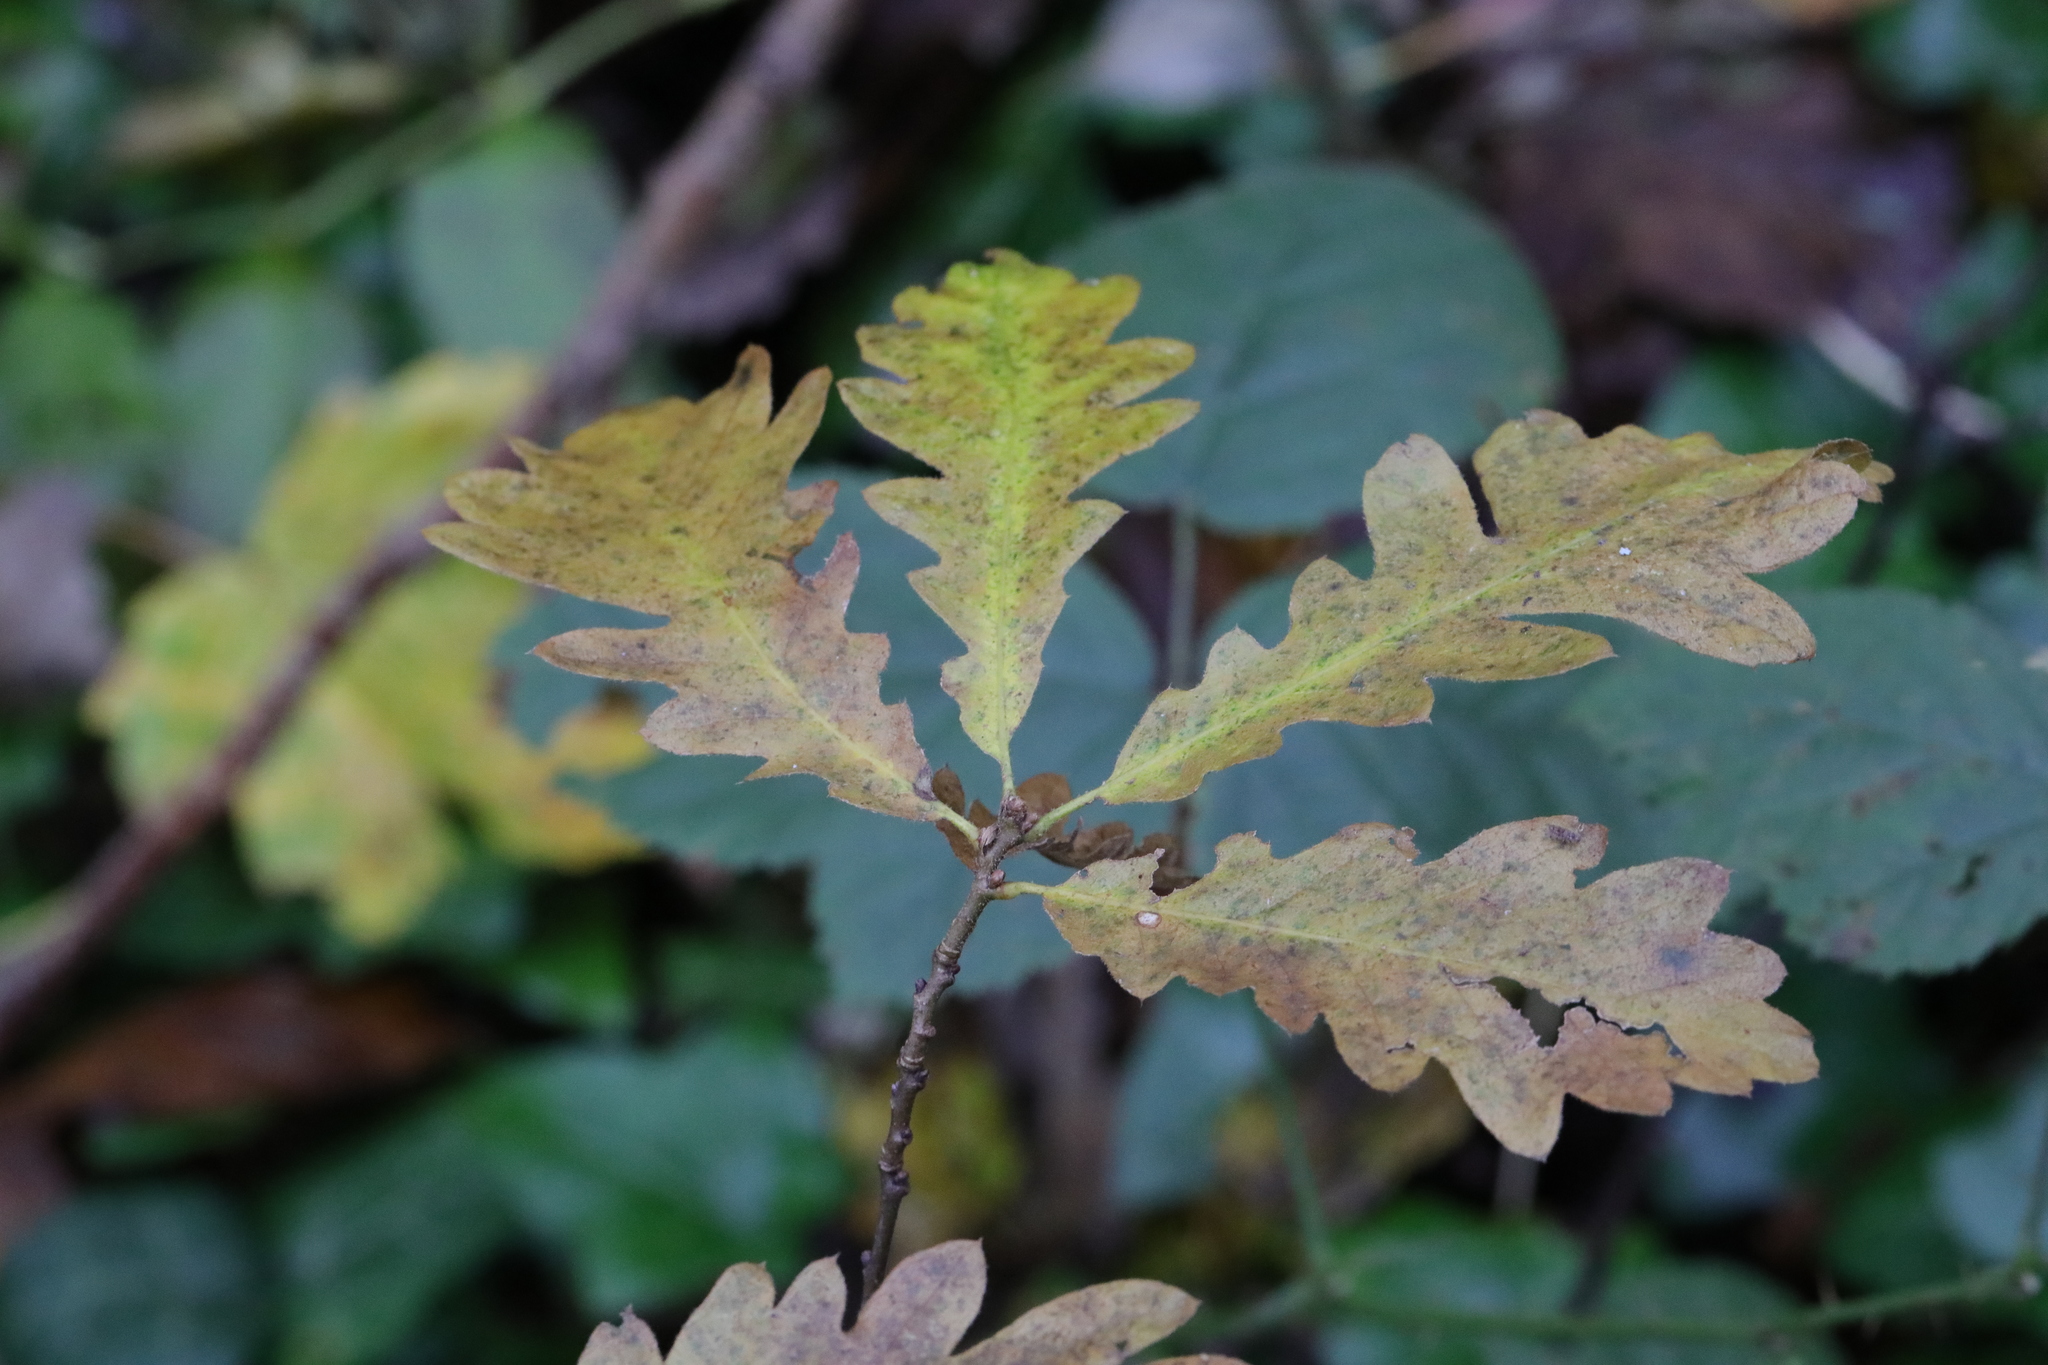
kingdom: Plantae
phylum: Tracheophyta
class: Magnoliopsida
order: Fagales
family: Fagaceae
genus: Quercus
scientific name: Quercus robur
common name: Pedunculate oak
